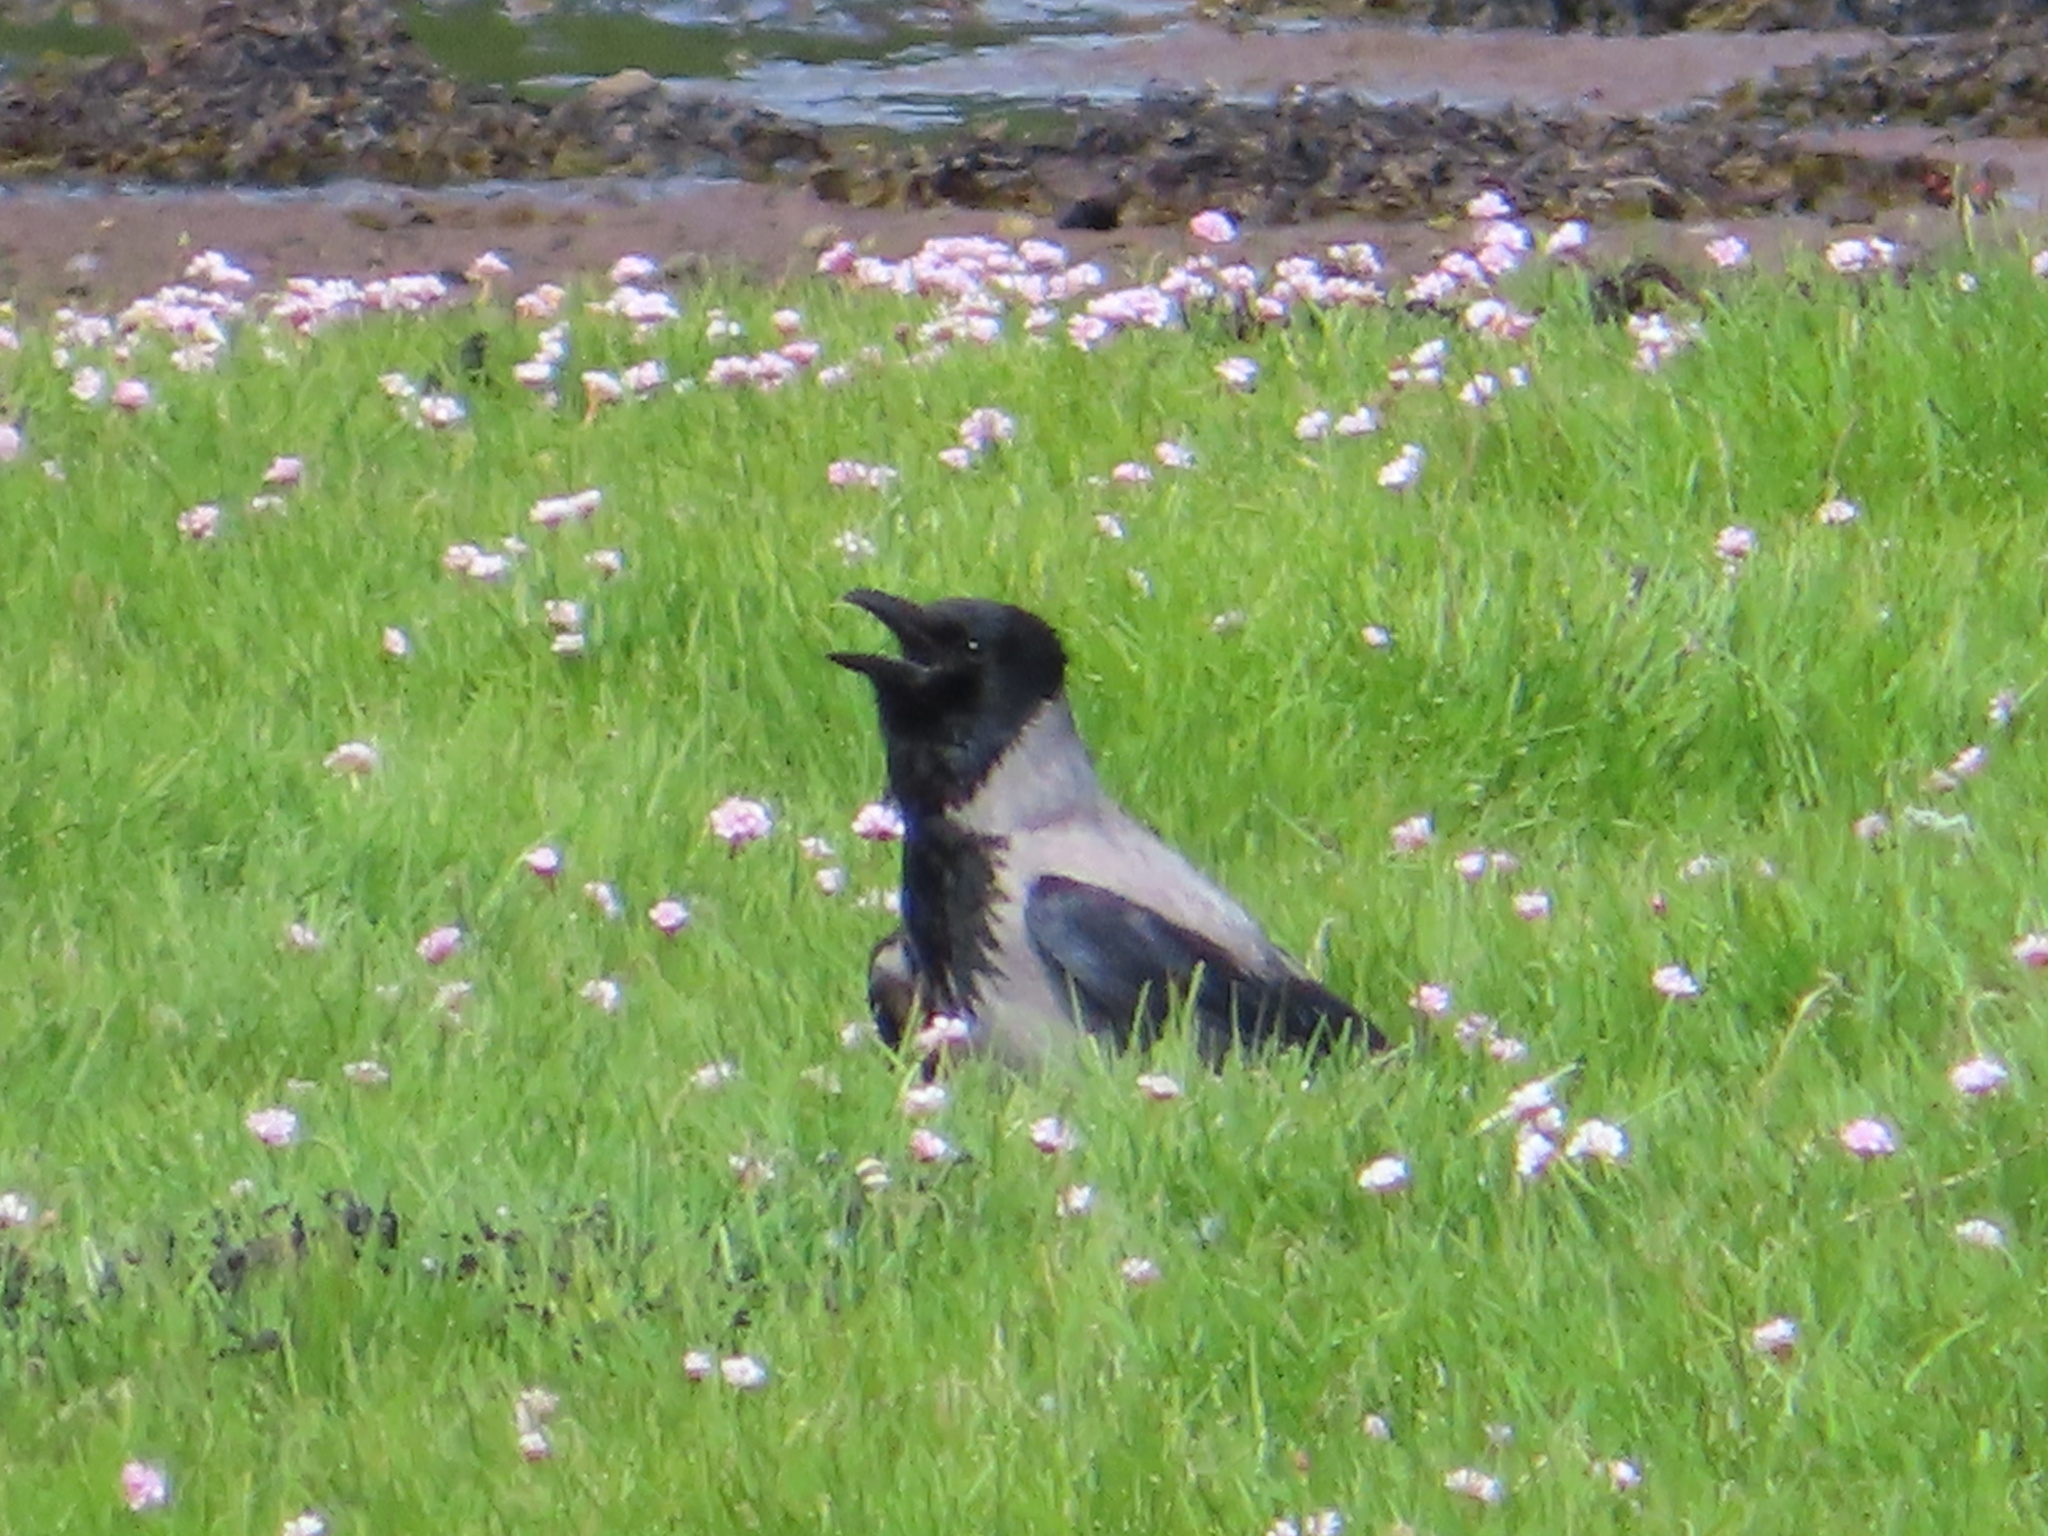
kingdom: Animalia
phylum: Chordata
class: Aves
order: Passeriformes
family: Corvidae
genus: Corvus
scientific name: Corvus cornix
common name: Hooded crow
